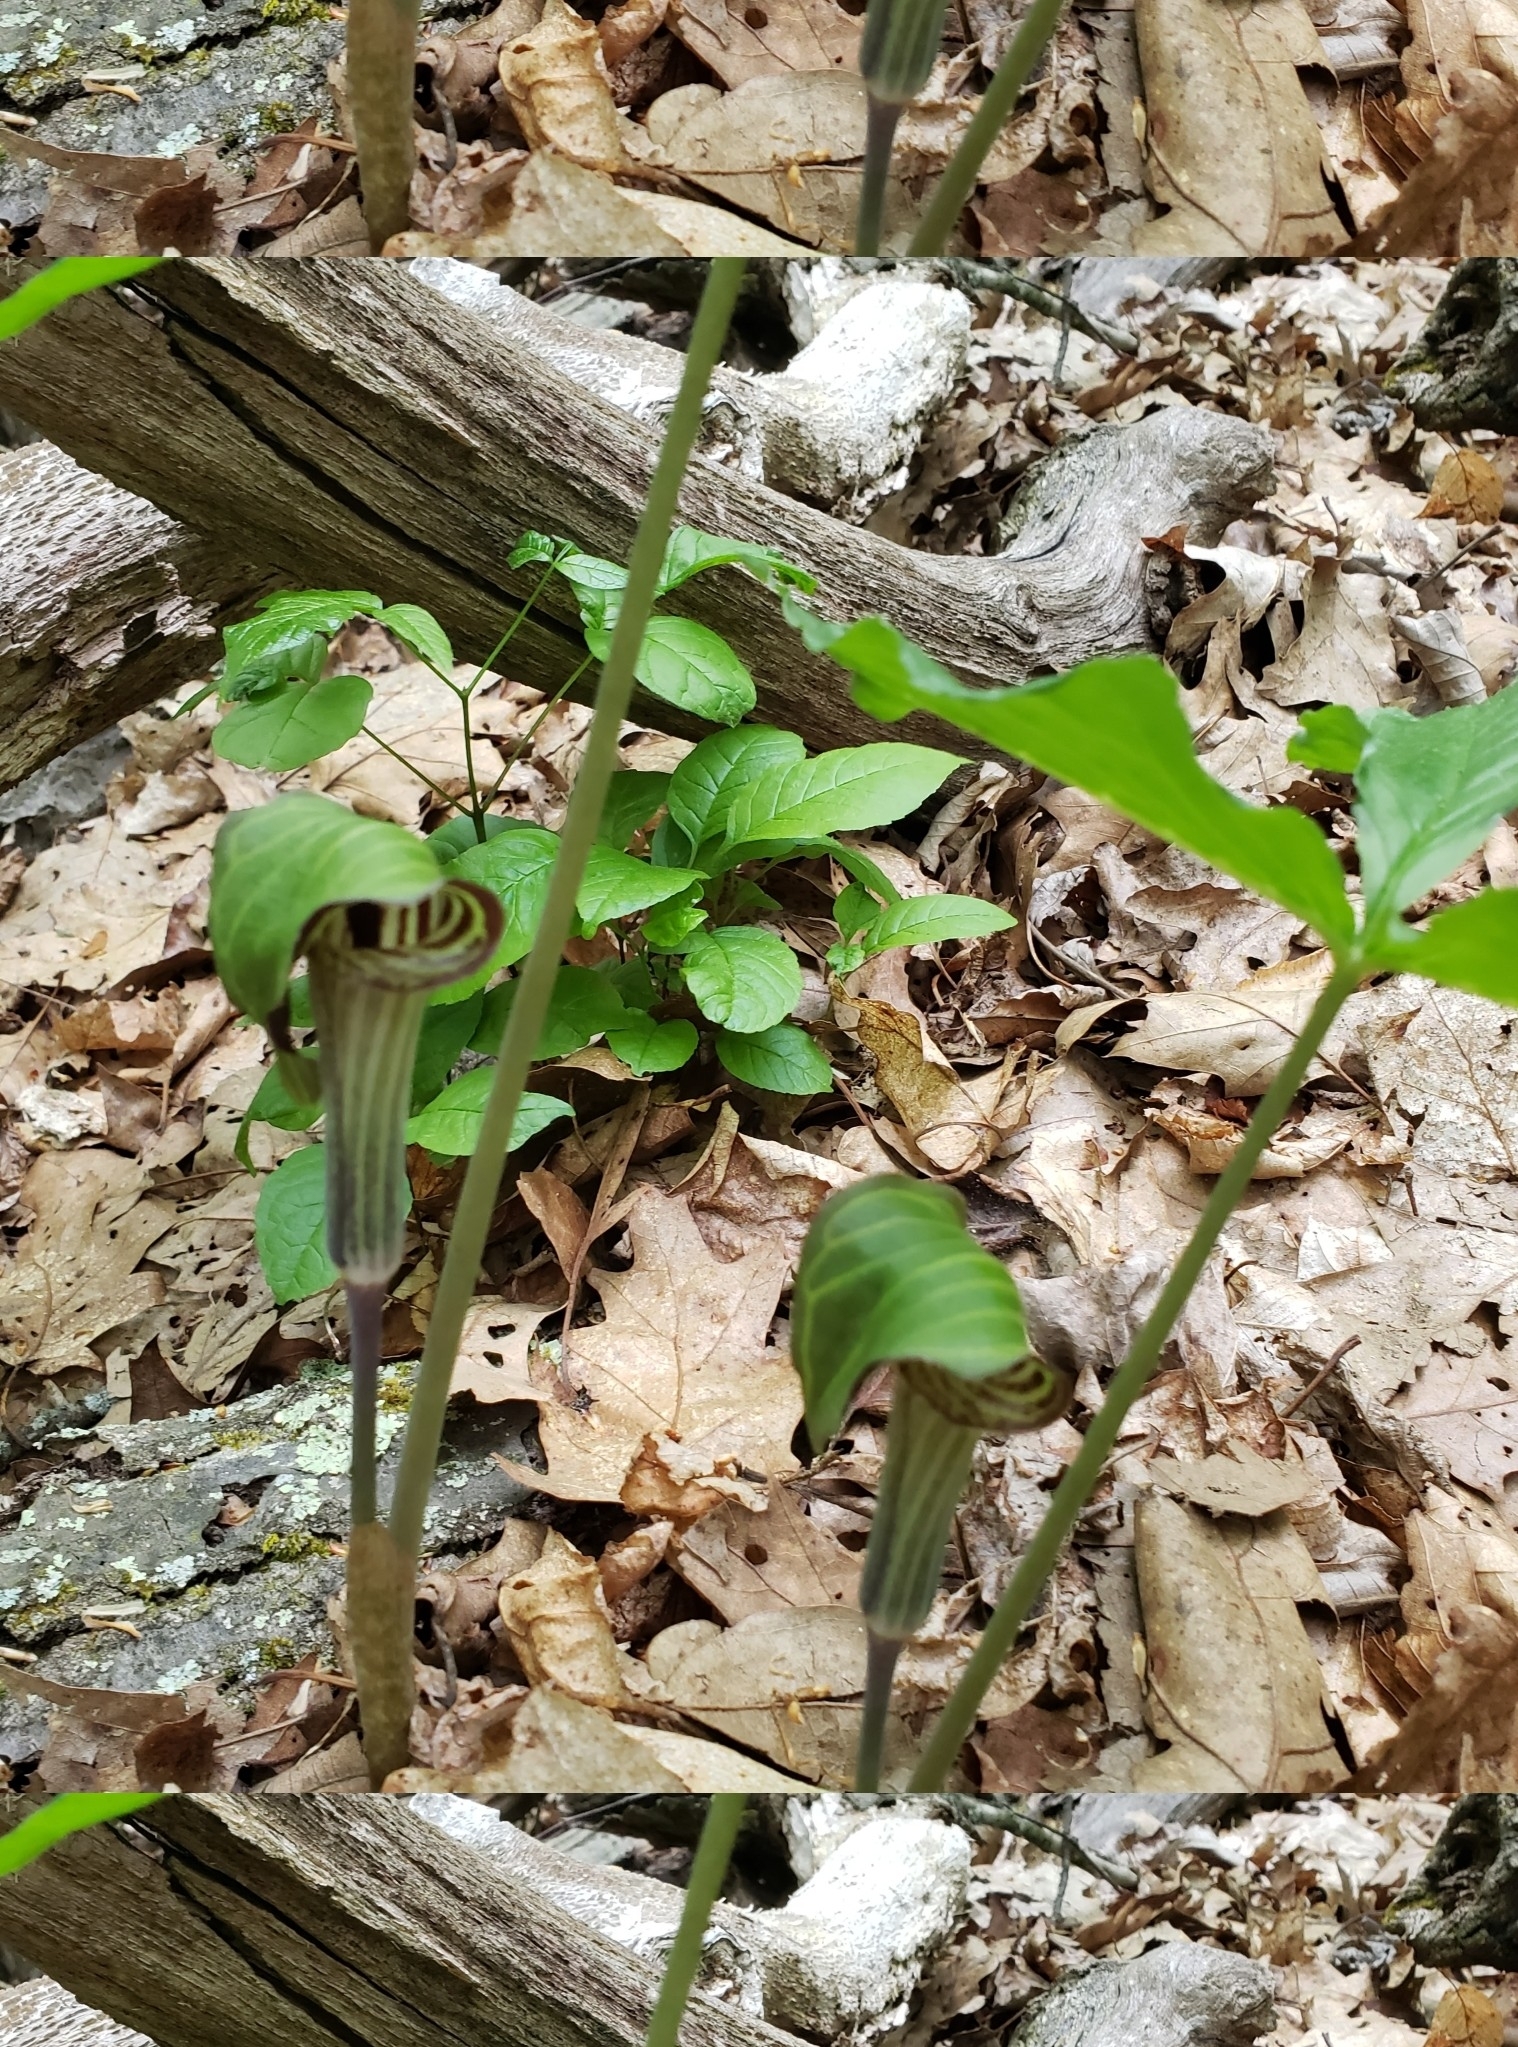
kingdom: Plantae
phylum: Tracheophyta
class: Liliopsida
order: Alismatales
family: Araceae
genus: Arisaema
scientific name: Arisaema triphyllum
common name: Jack-in-the-pulpit
